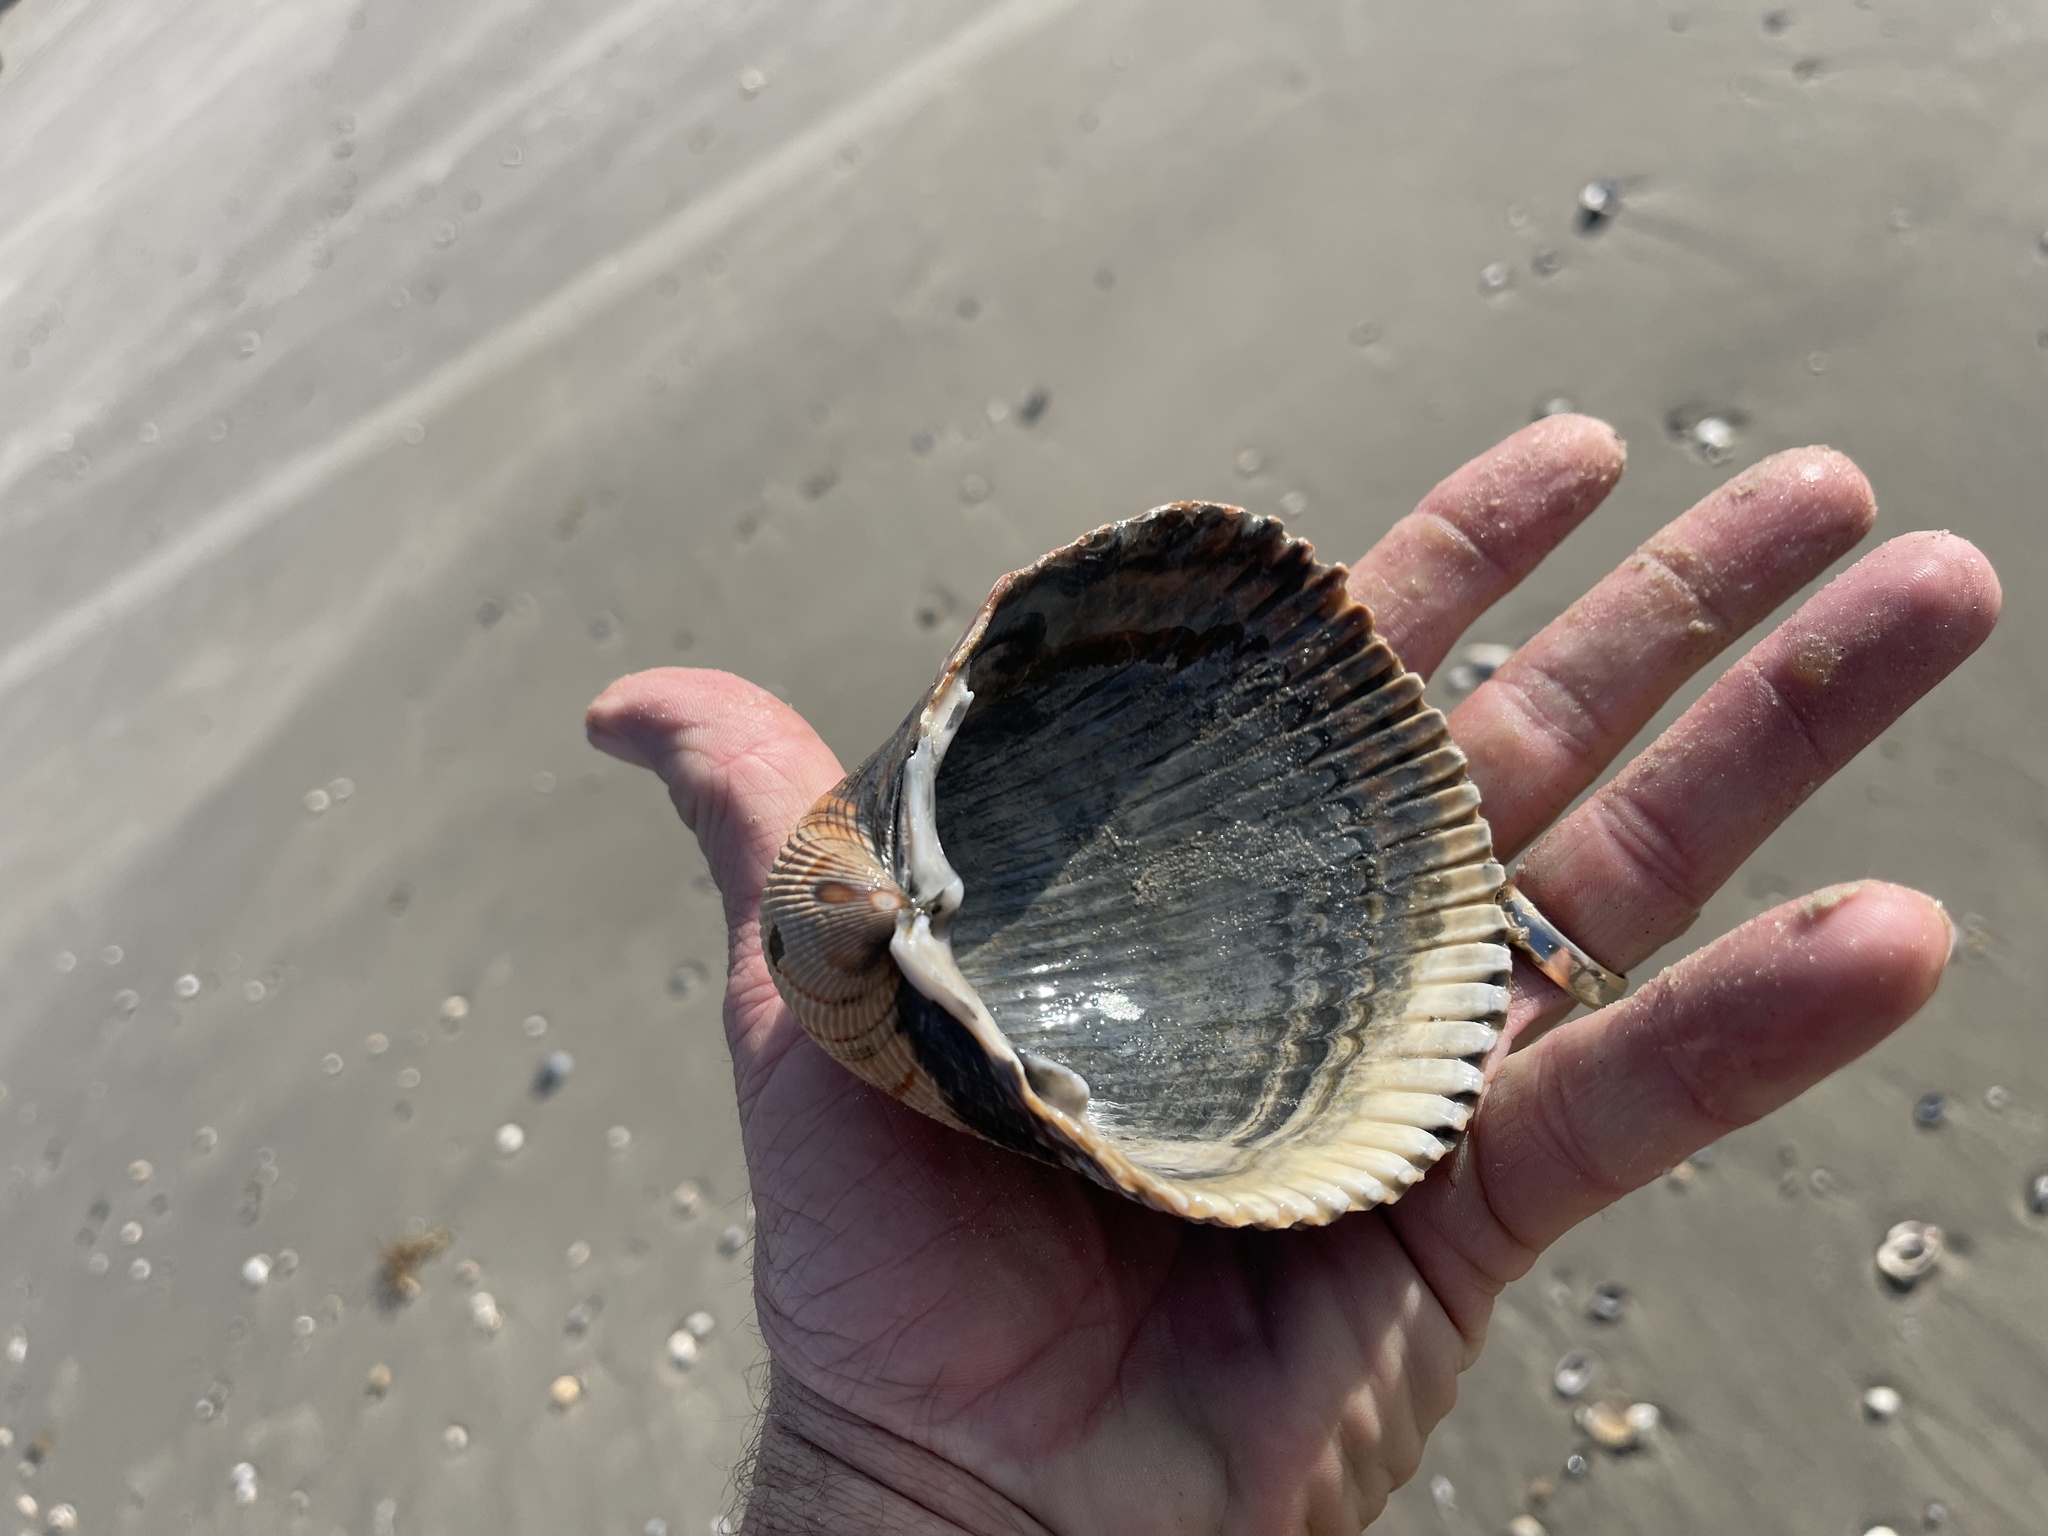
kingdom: Animalia
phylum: Mollusca
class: Bivalvia
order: Cardiida
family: Cardiidae
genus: Dinocardium
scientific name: Dinocardium robustum
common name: Atlantic giant cockle
